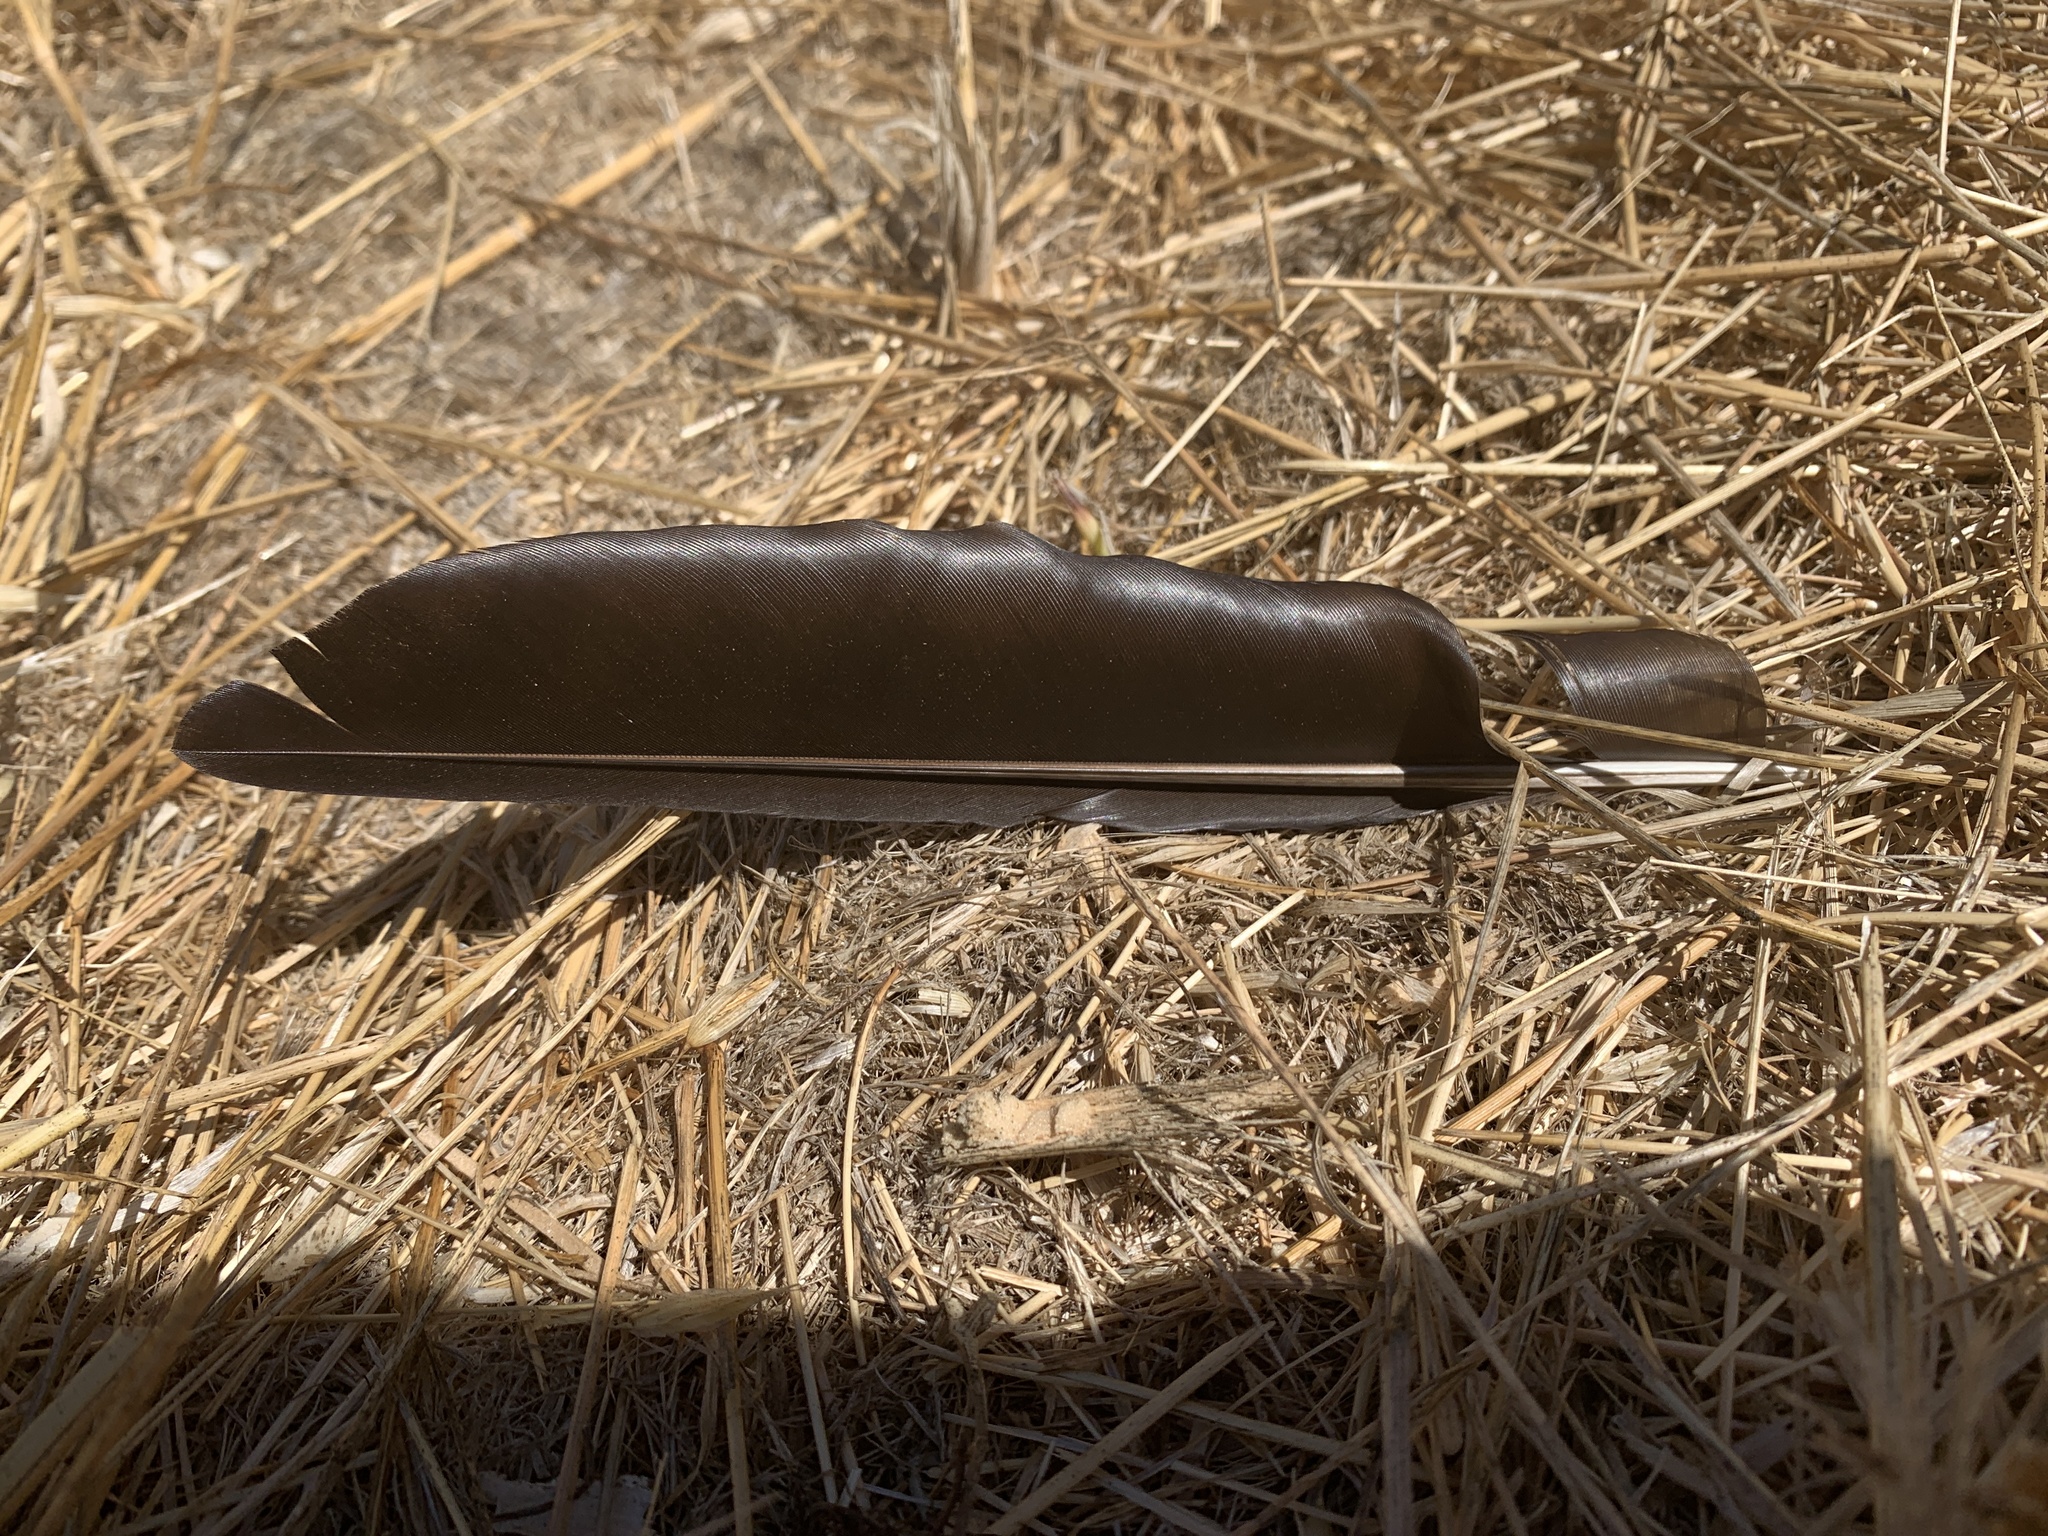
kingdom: Animalia
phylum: Chordata
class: Aves
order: Passeriformes
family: Corvidae
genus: Corvus
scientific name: Corvus brachyrhynchos
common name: American crow
